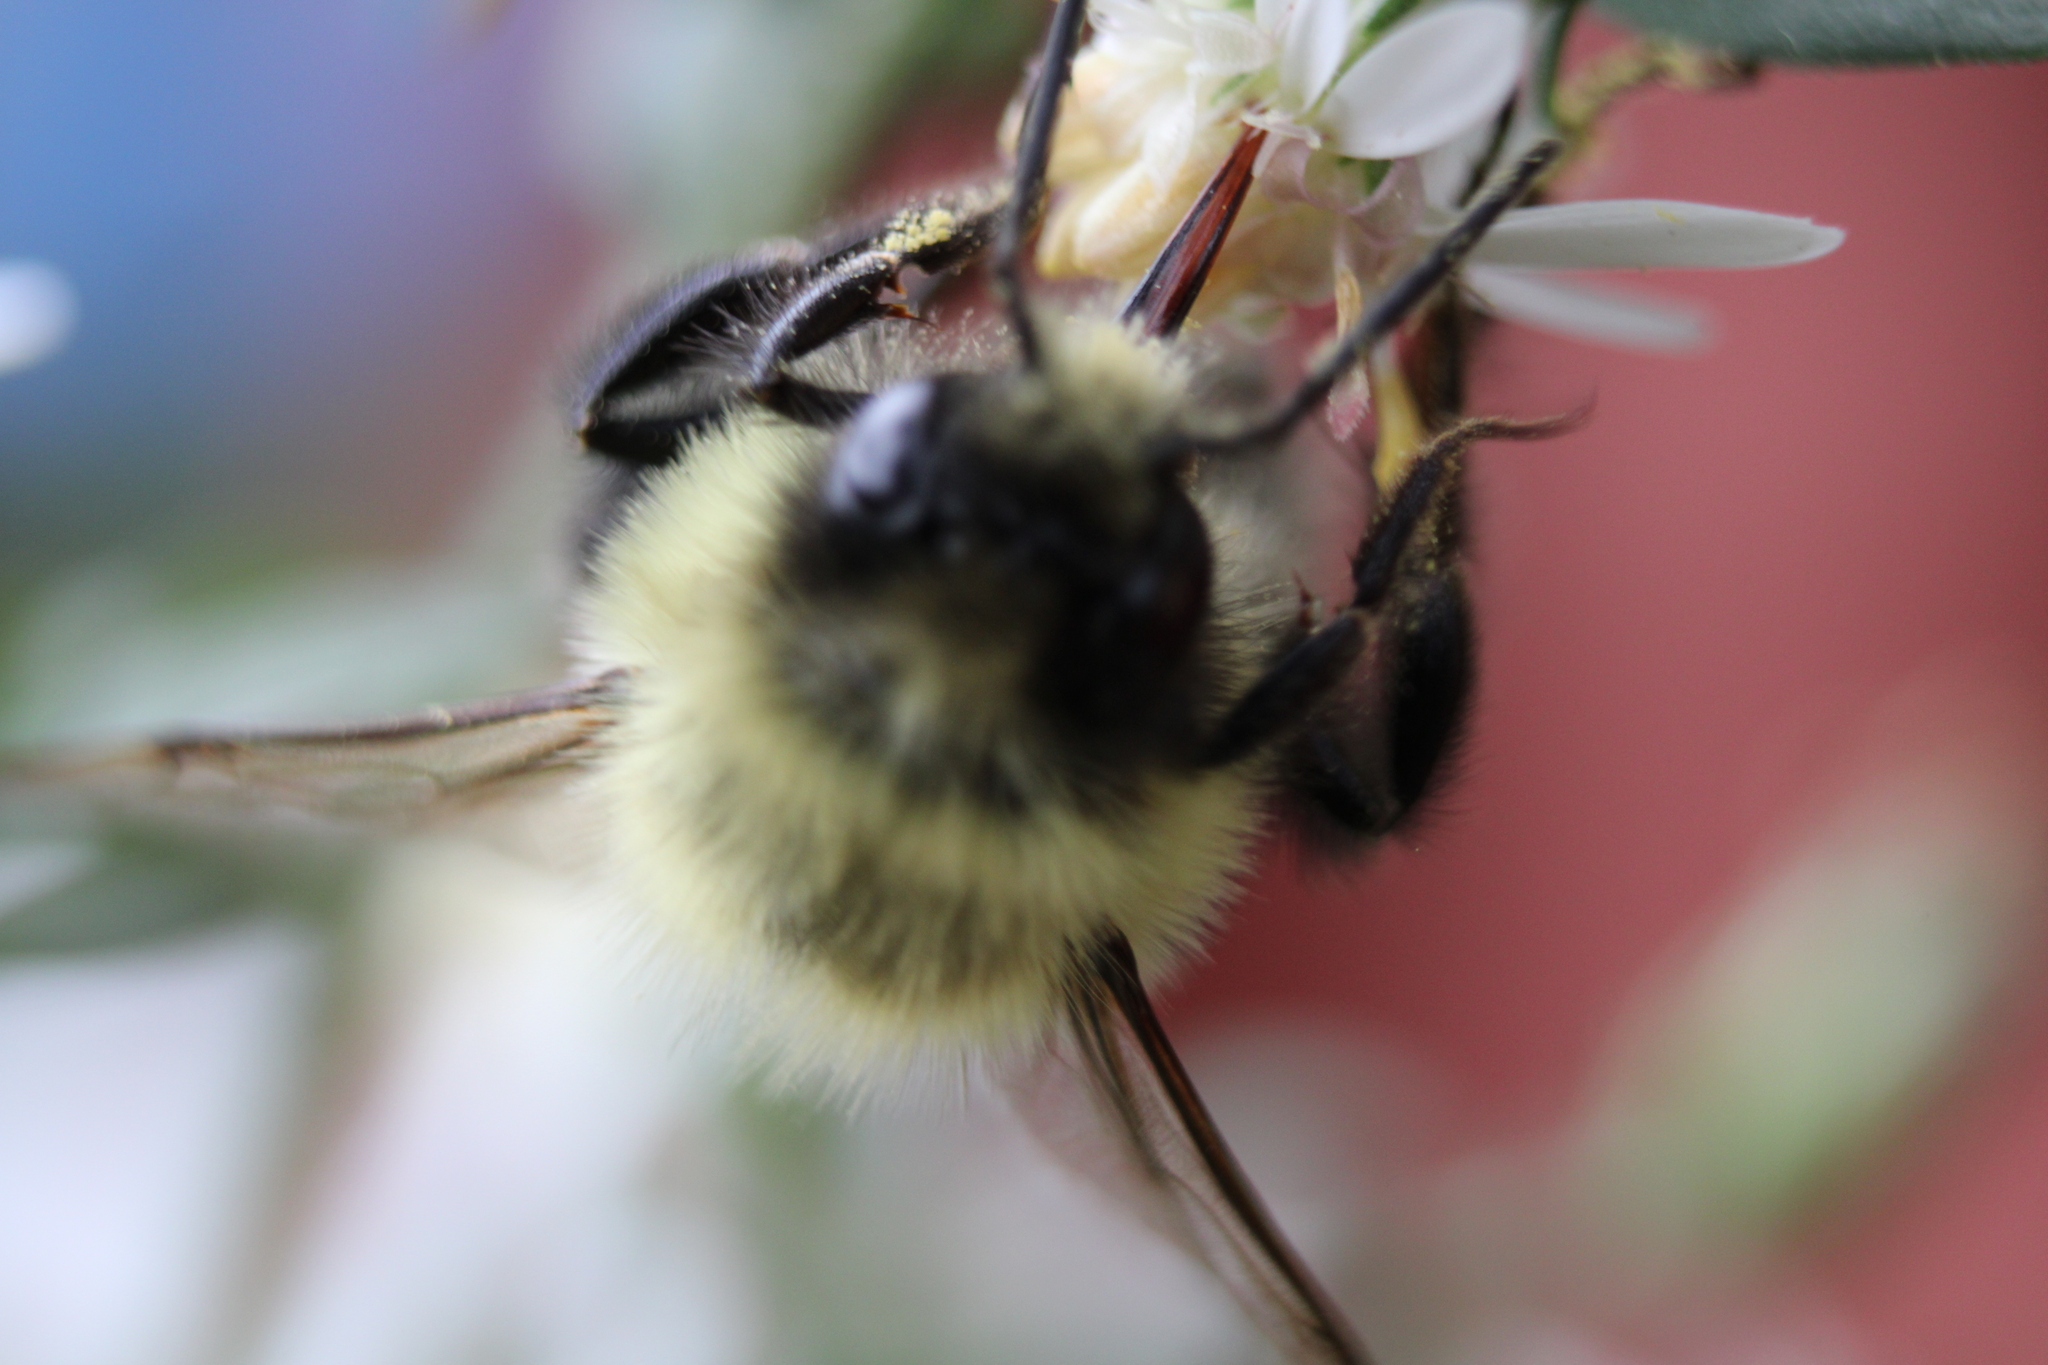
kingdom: Animalia
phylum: Arthropoda
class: Insecta
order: Hymenoptera
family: Apidae
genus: Bombus
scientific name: Bombus impatiens
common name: Common eastern bumble bee
